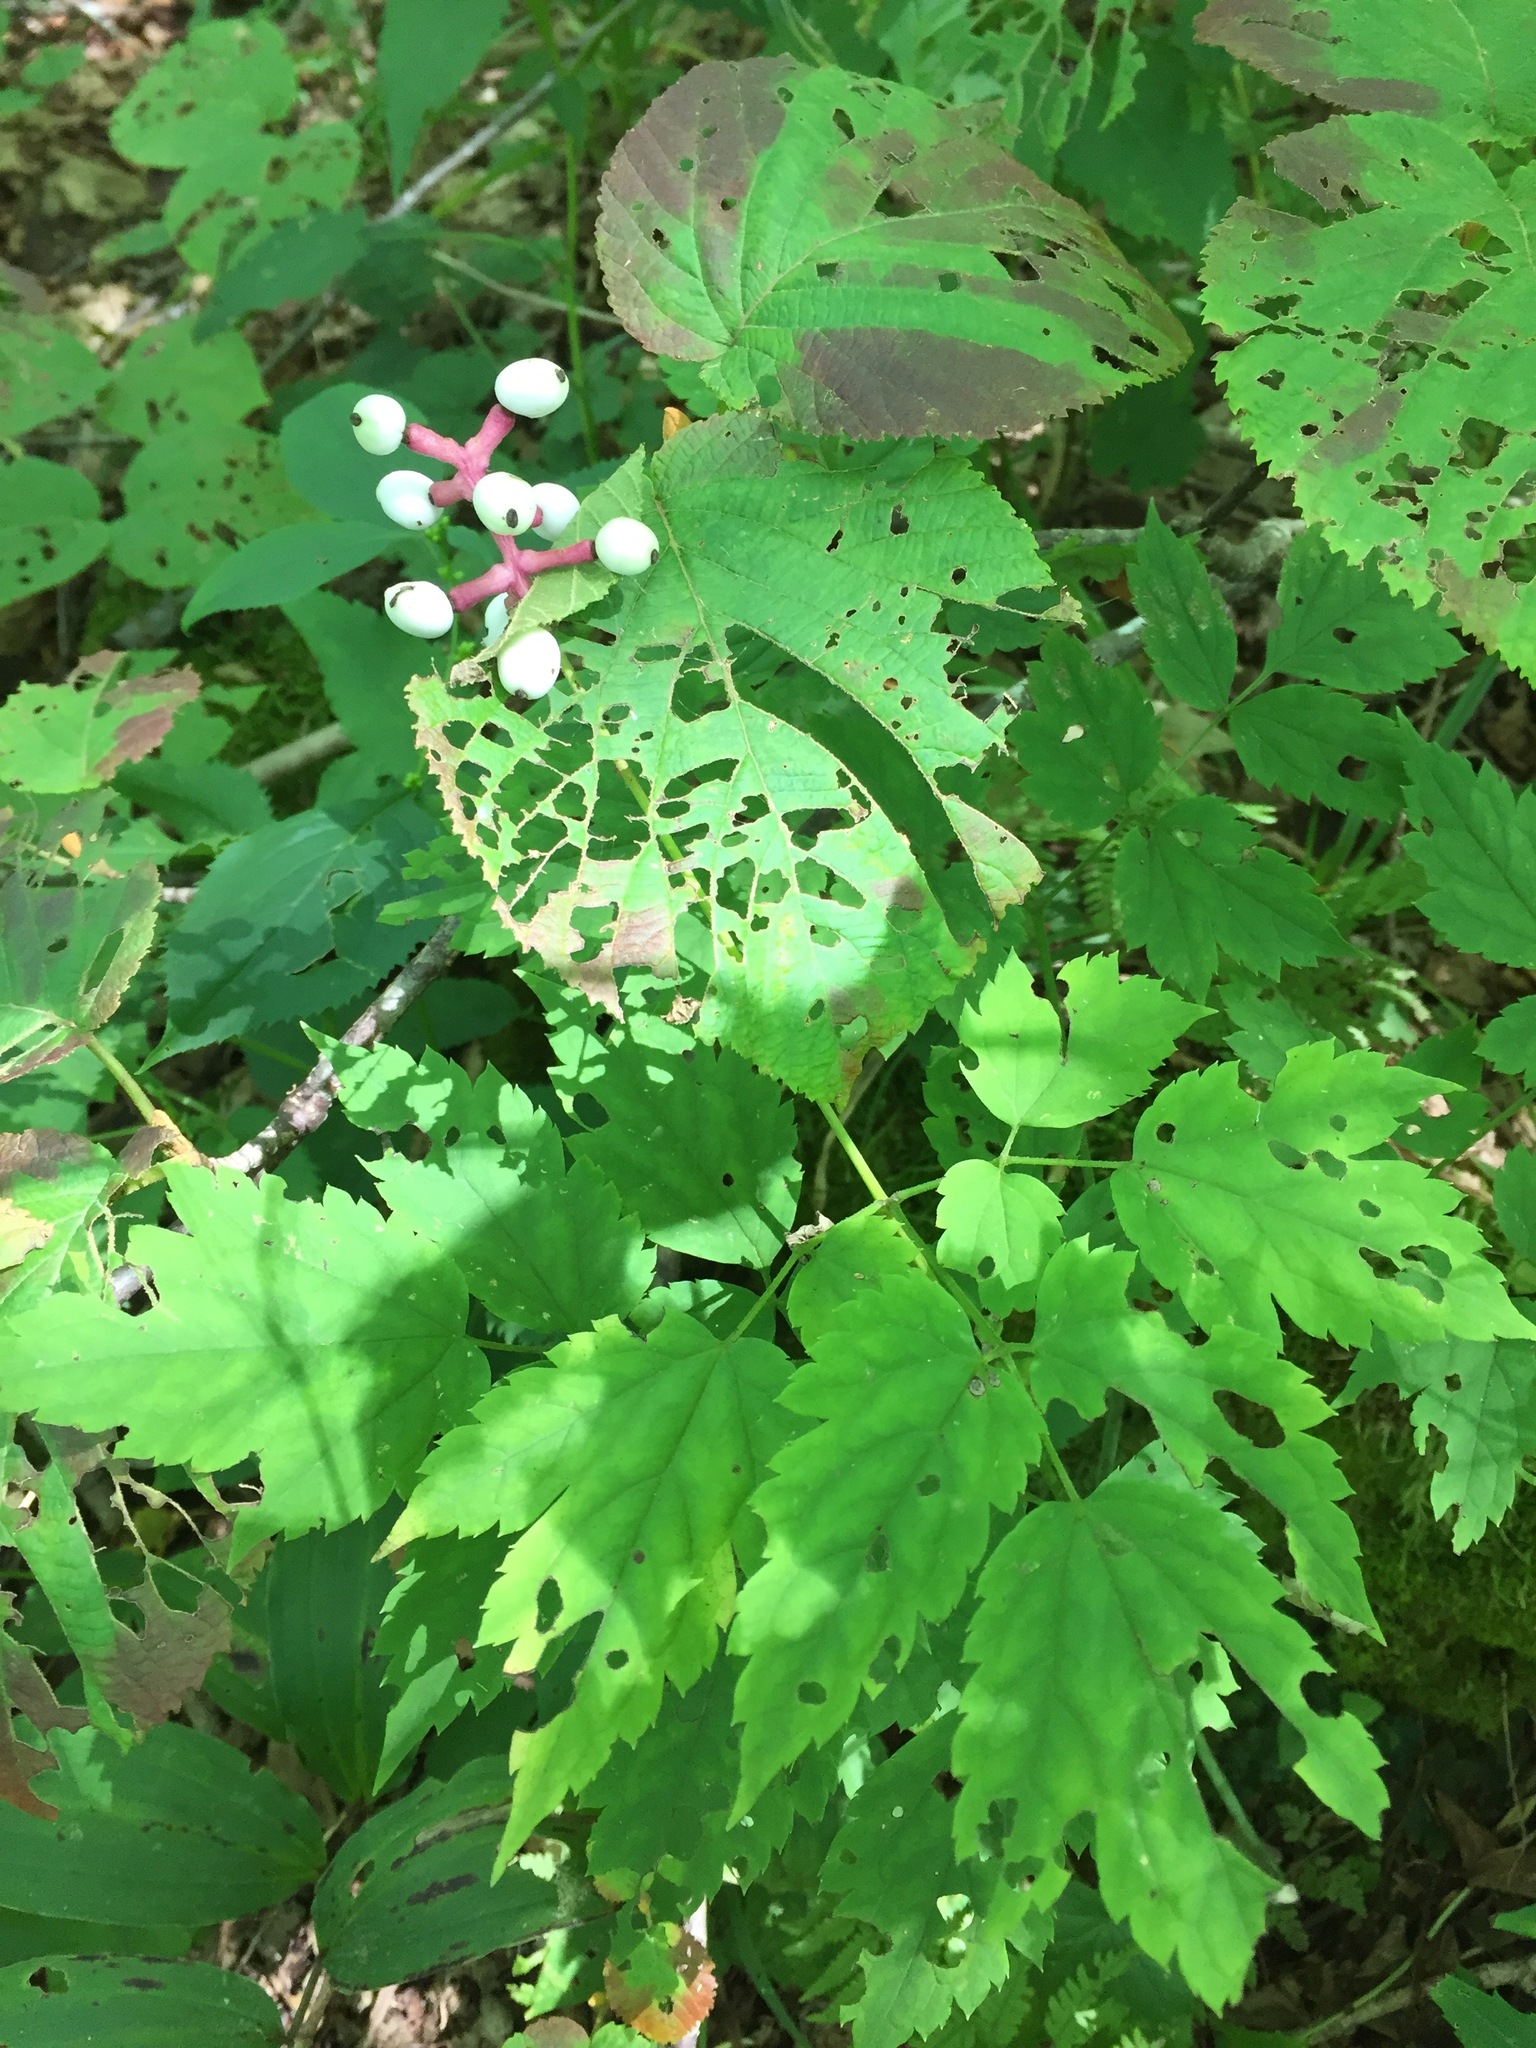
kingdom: Plantae
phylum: Tracheophyta
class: Magnoliopsida
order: Ranunculales
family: Ranunculaceae
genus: Actaea
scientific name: Actaea pachypoda
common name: Doll's-eyes
